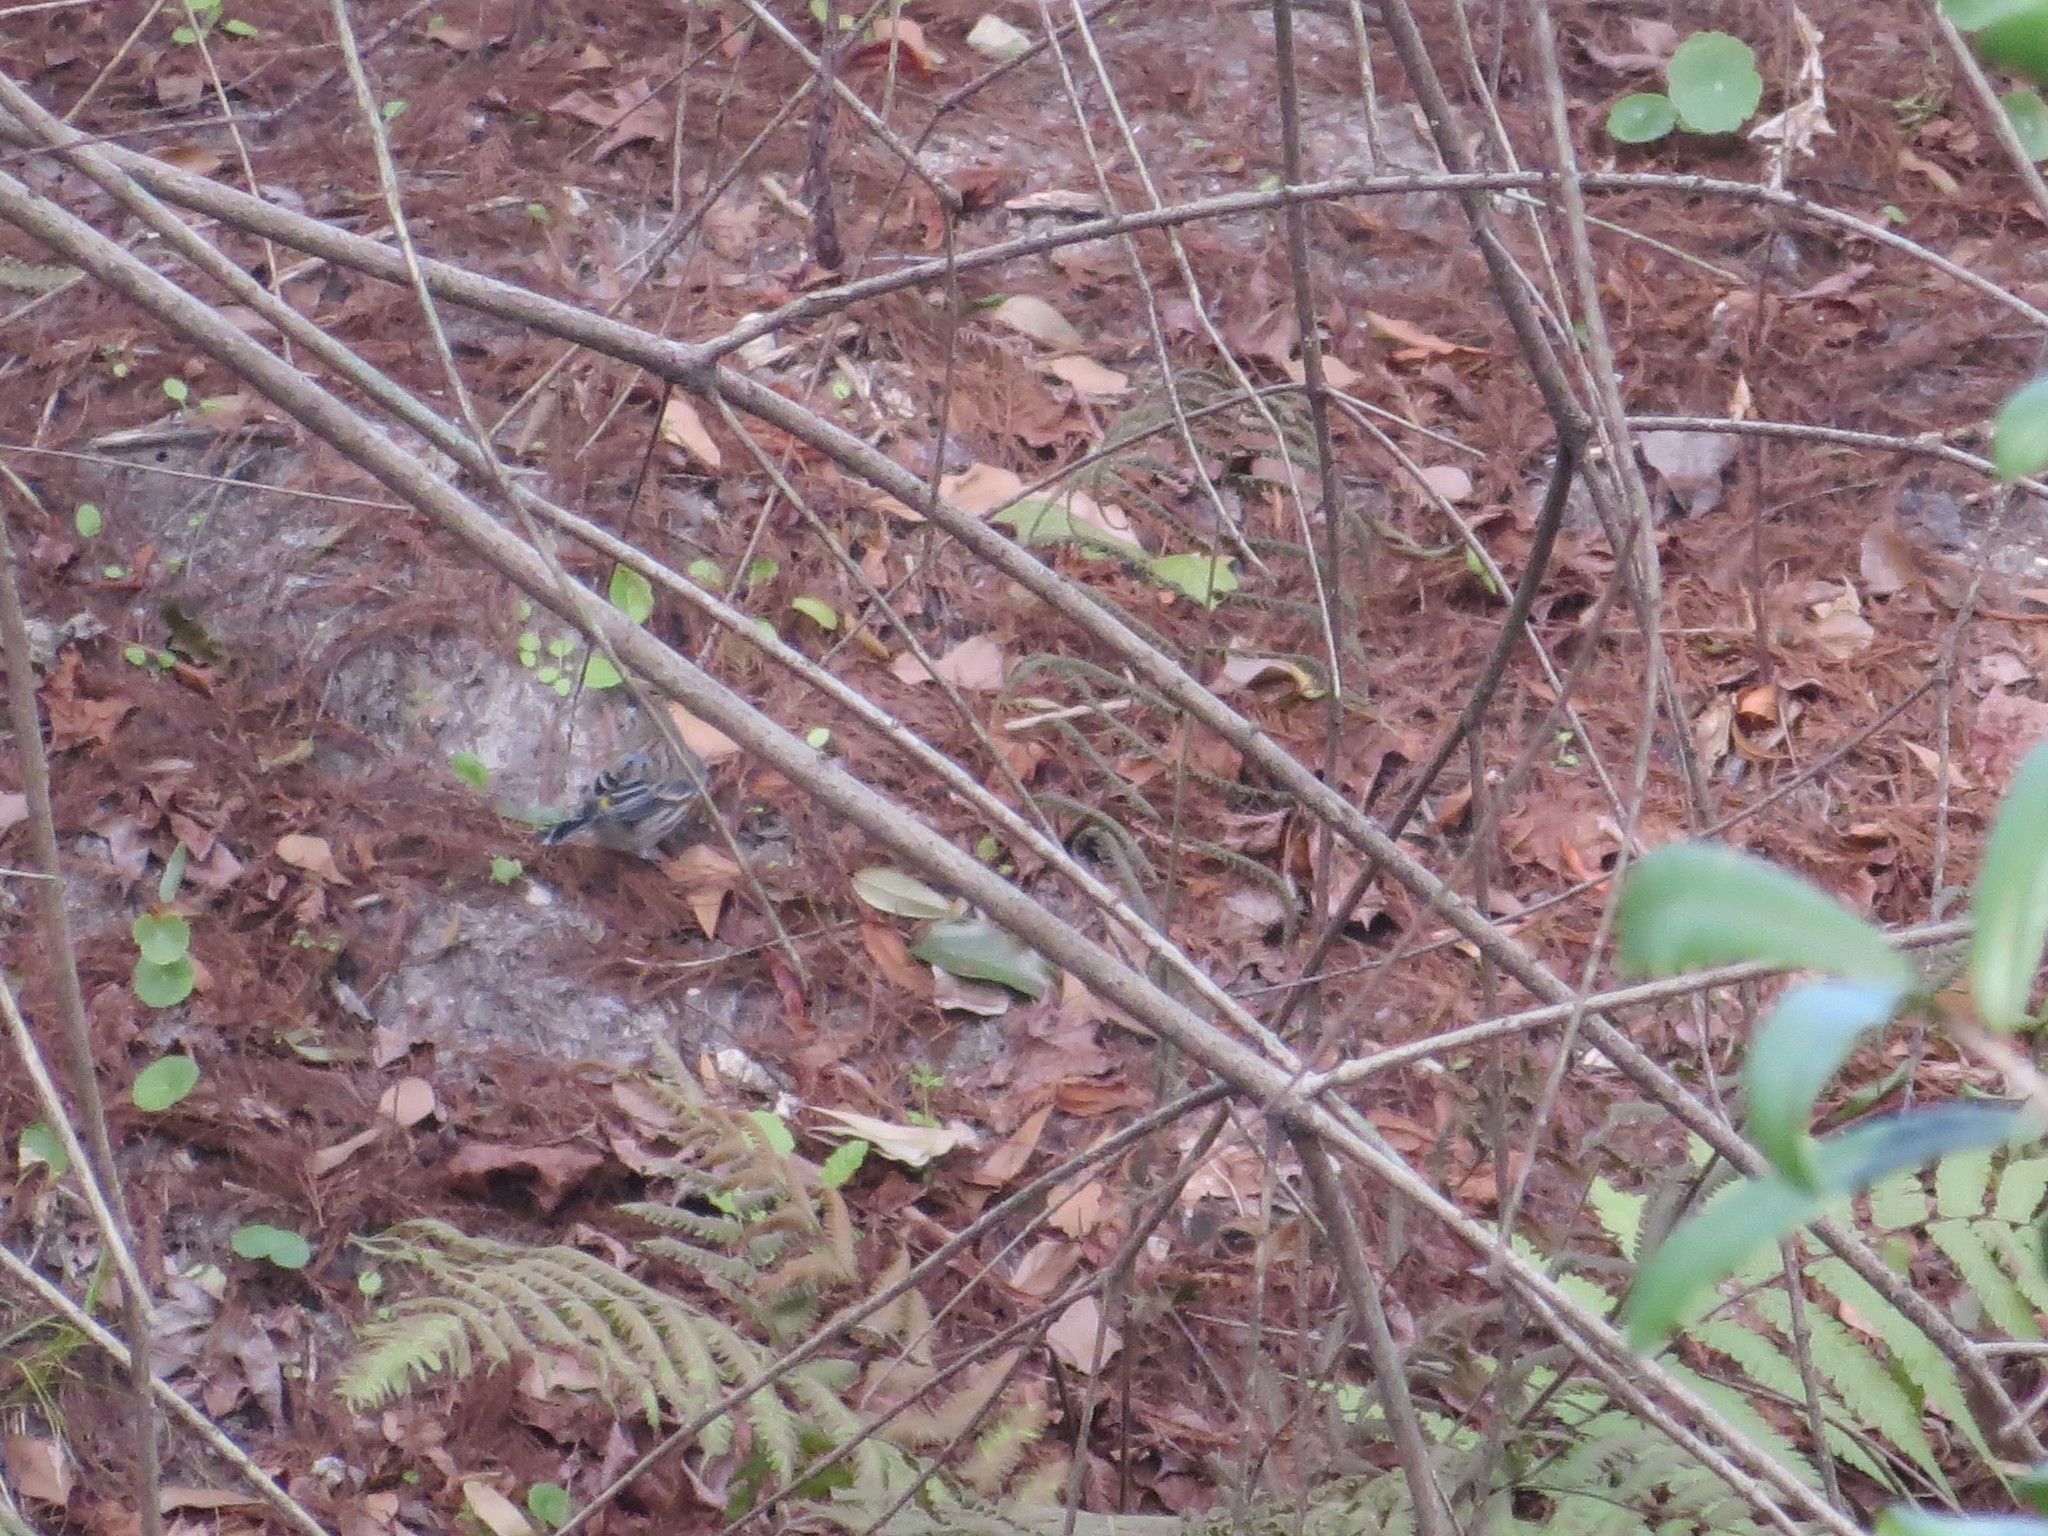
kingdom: Animalia
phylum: Chordata
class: Aves
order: Passeriformes
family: Parulidae
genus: Setophaga
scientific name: Setophaga coronata
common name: Myrtle warbler
